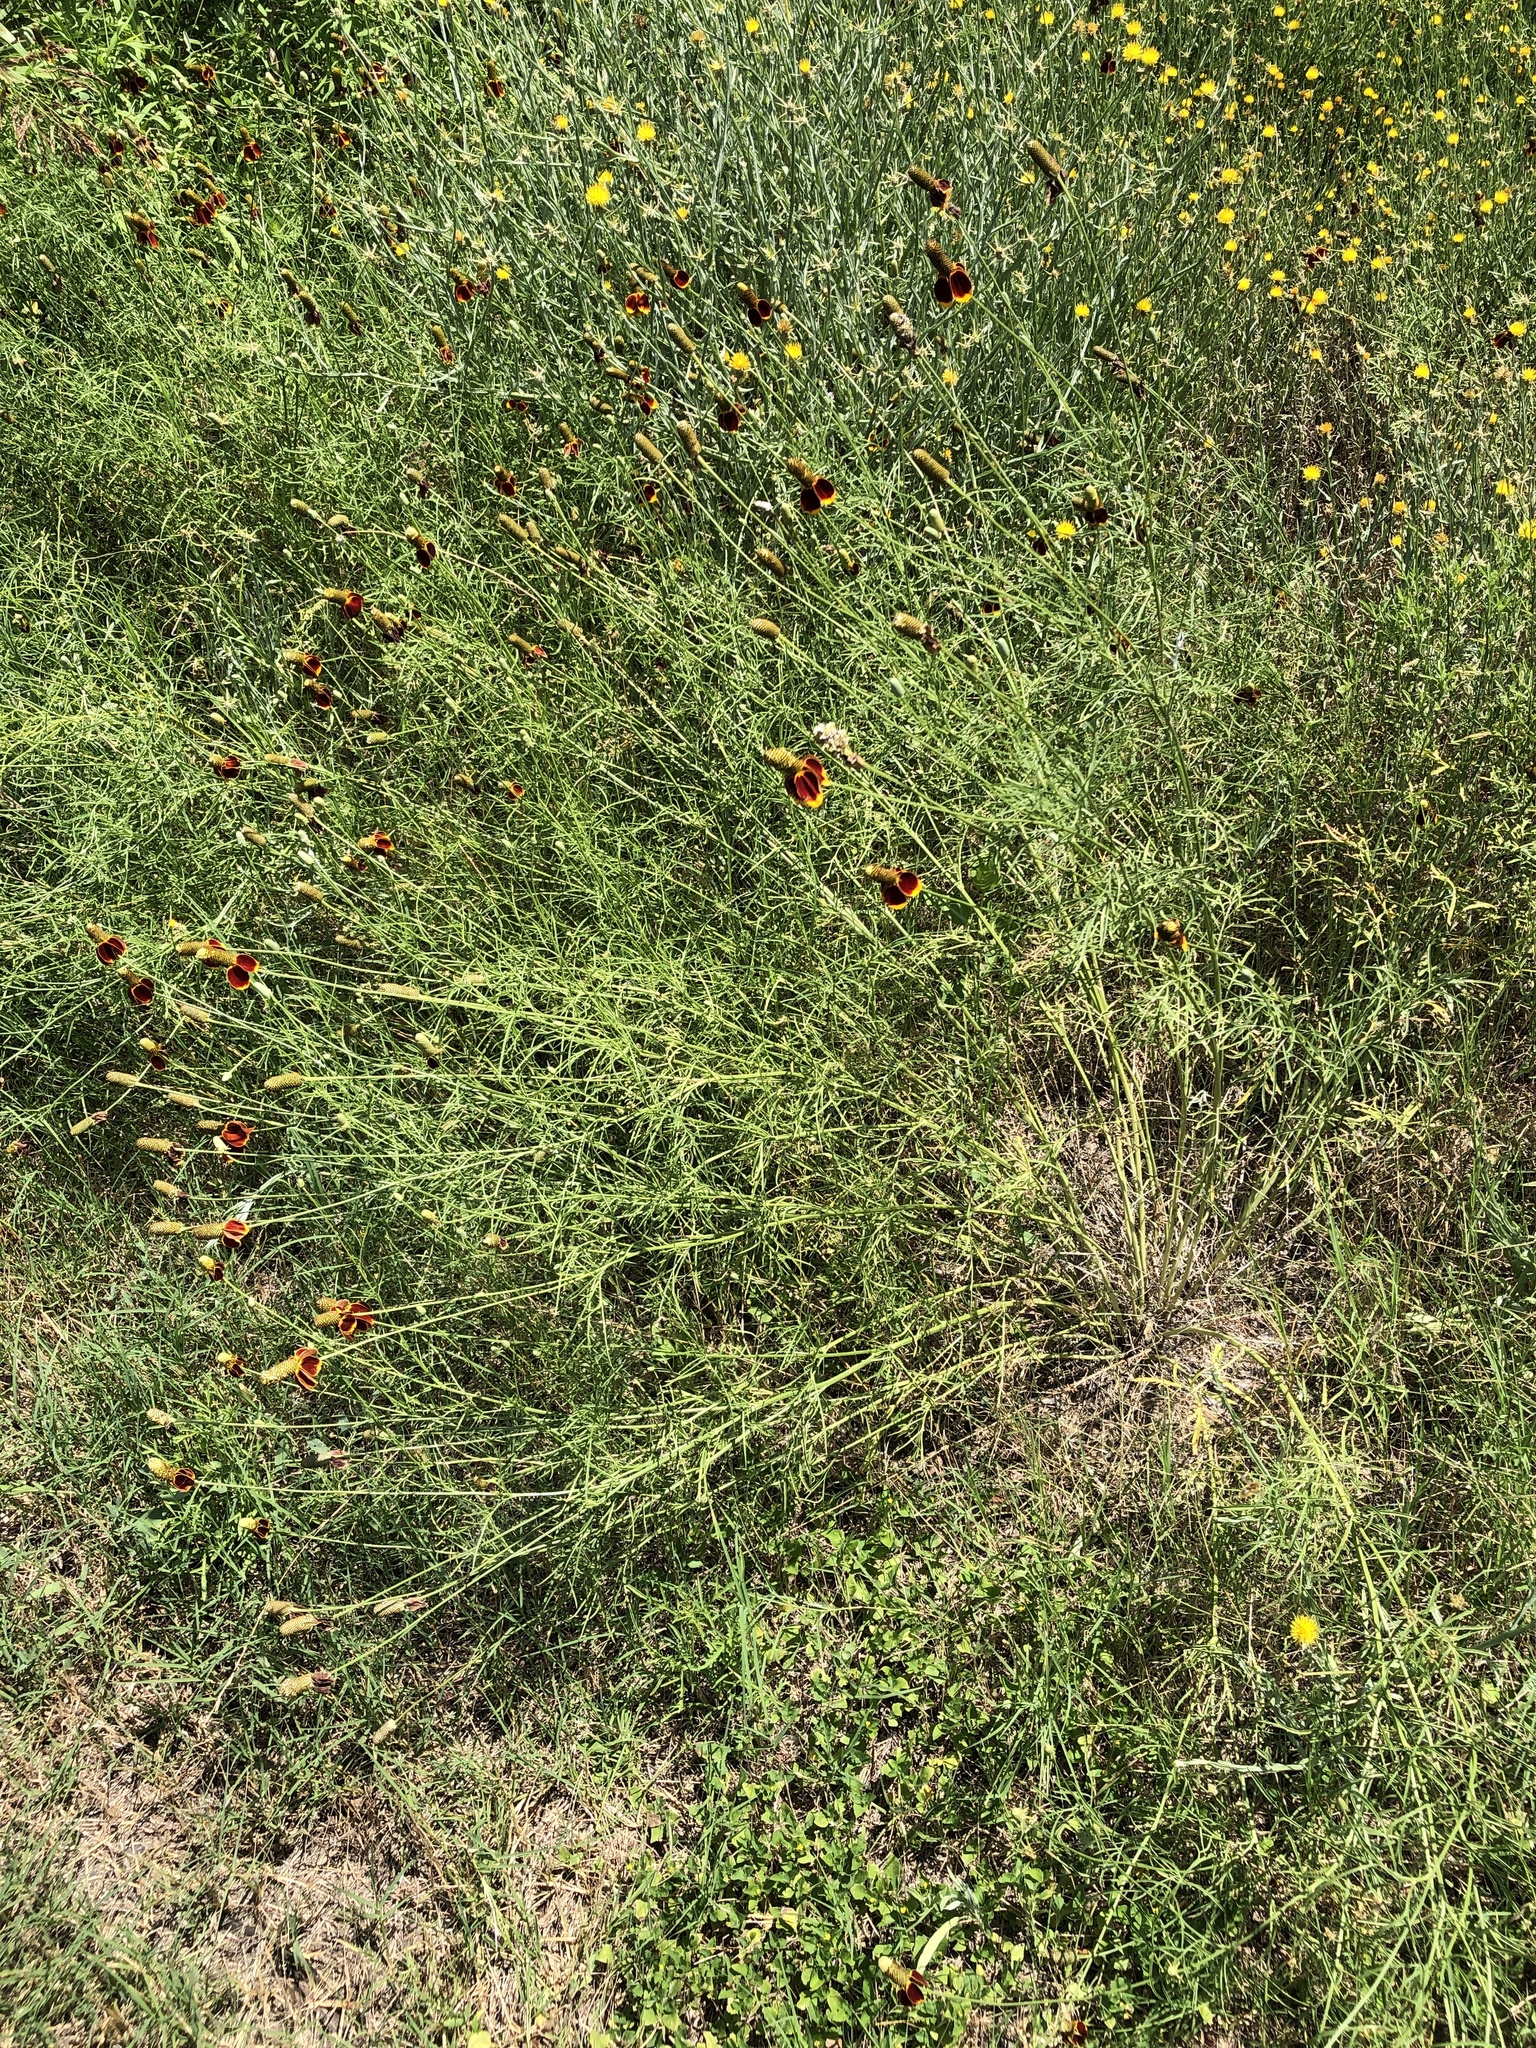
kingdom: Plantae
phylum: Tracheophyta
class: Magnoliopsida
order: Asterales
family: Asteraceae
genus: Ratibida
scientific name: Ratibida columnifera
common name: Prairie coneflower
